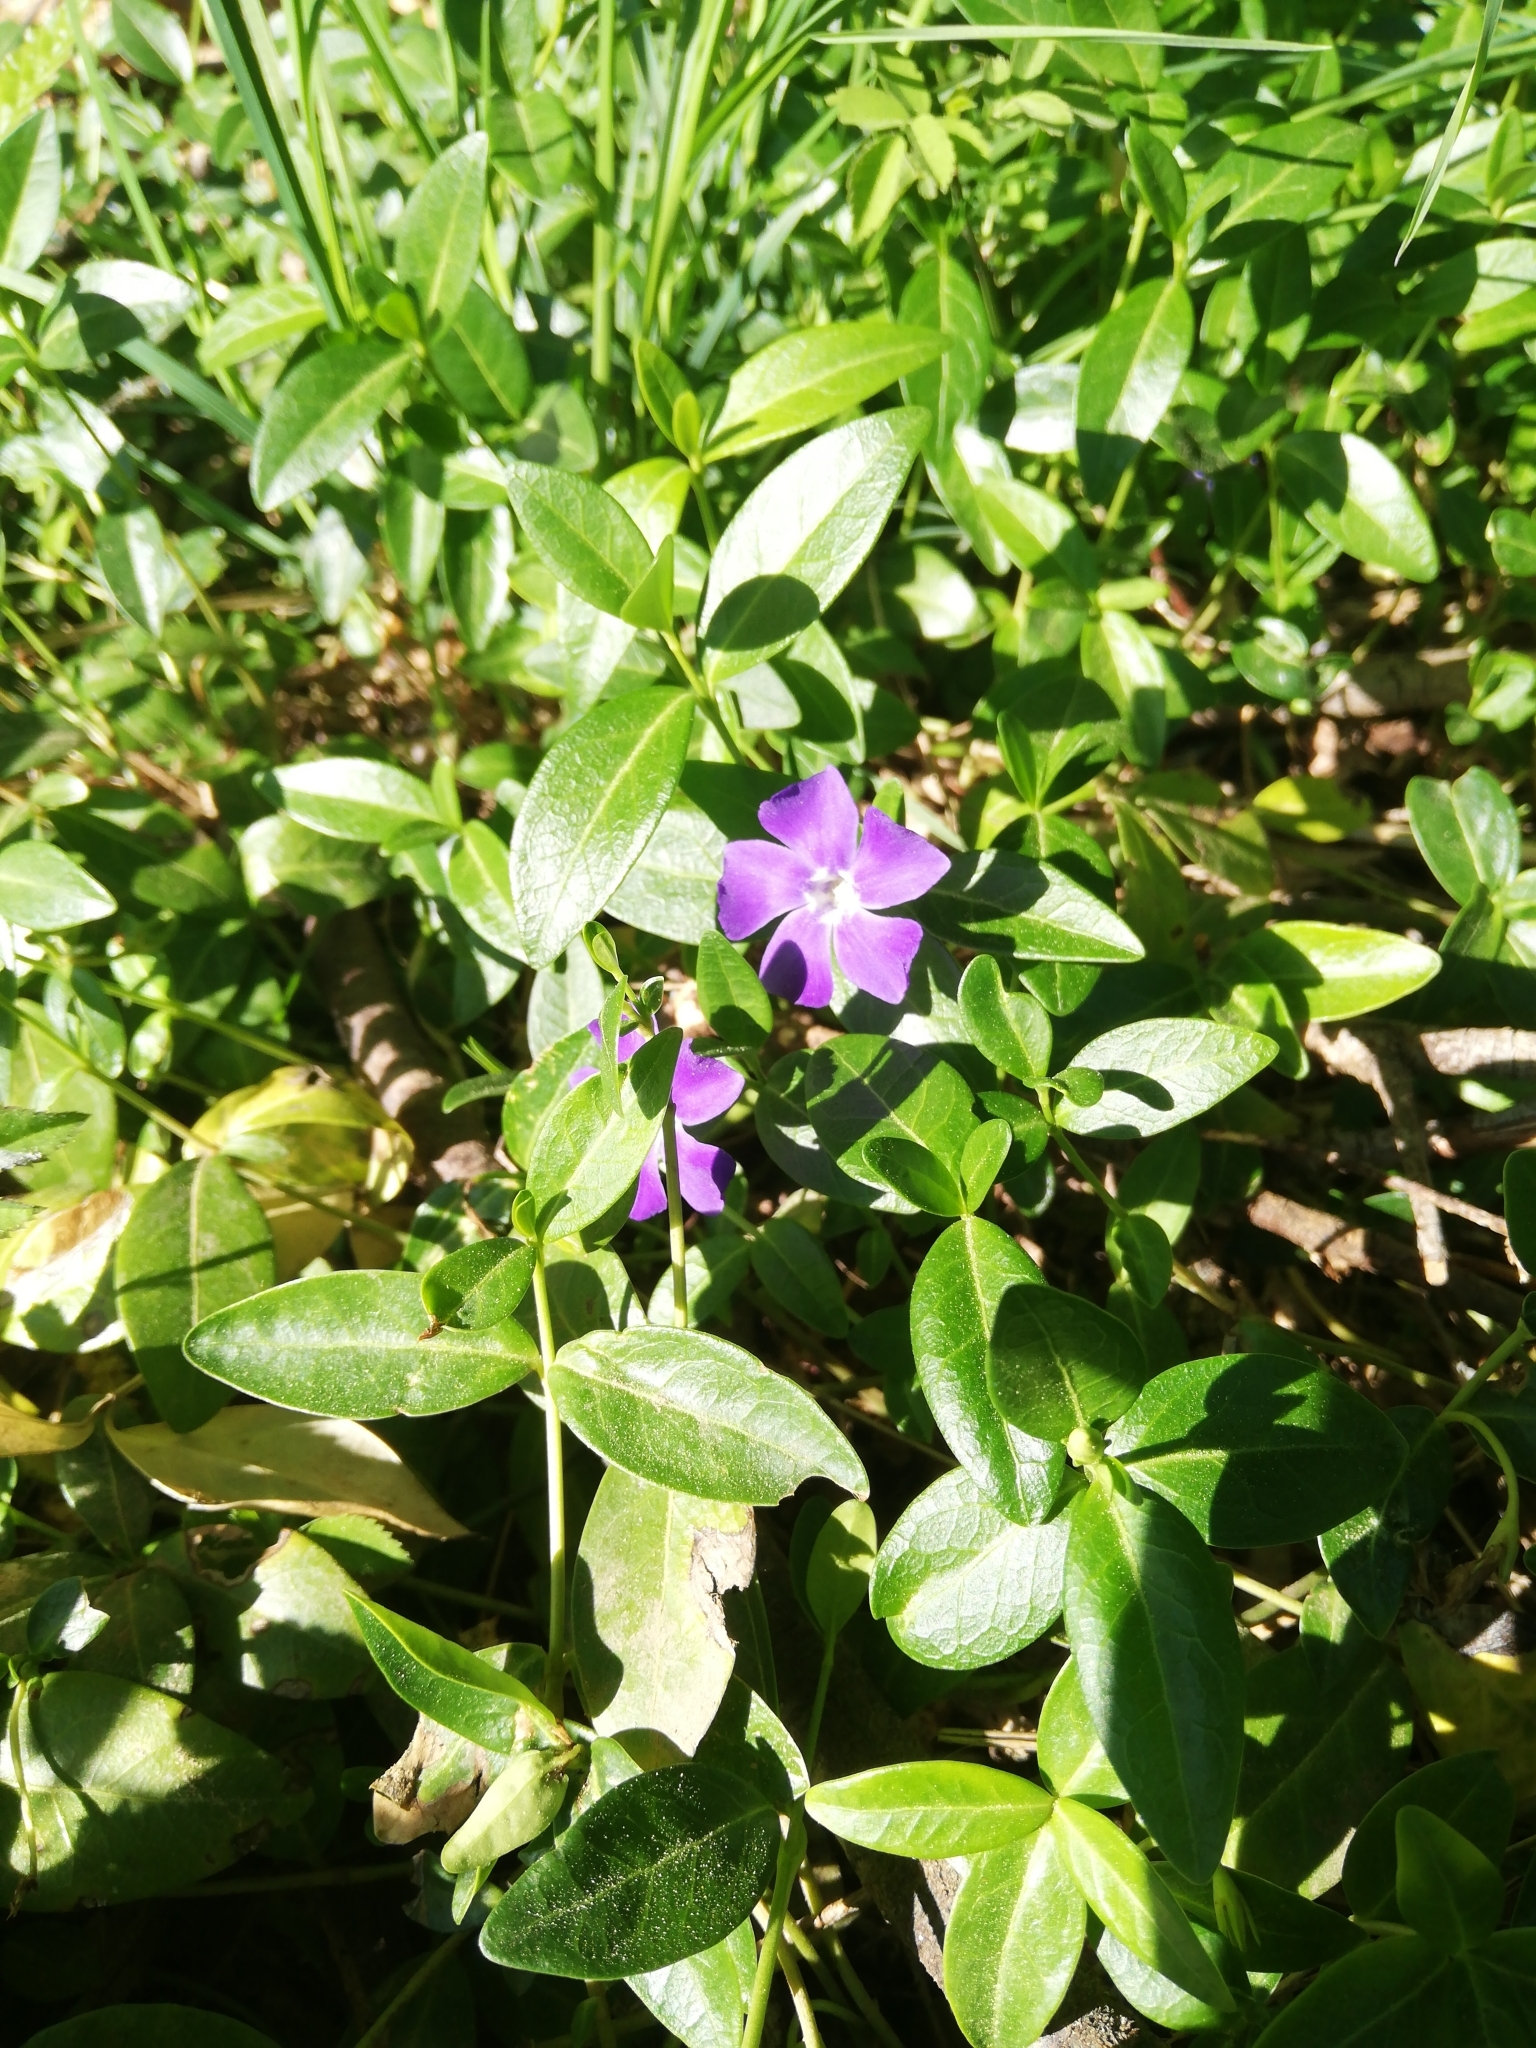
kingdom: Plantae
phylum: Tracheophyta
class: Magnoliopsida
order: Gentianales
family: Apocynaceae
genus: Vinca
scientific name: Vinca minor
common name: Lesser periwinkle
